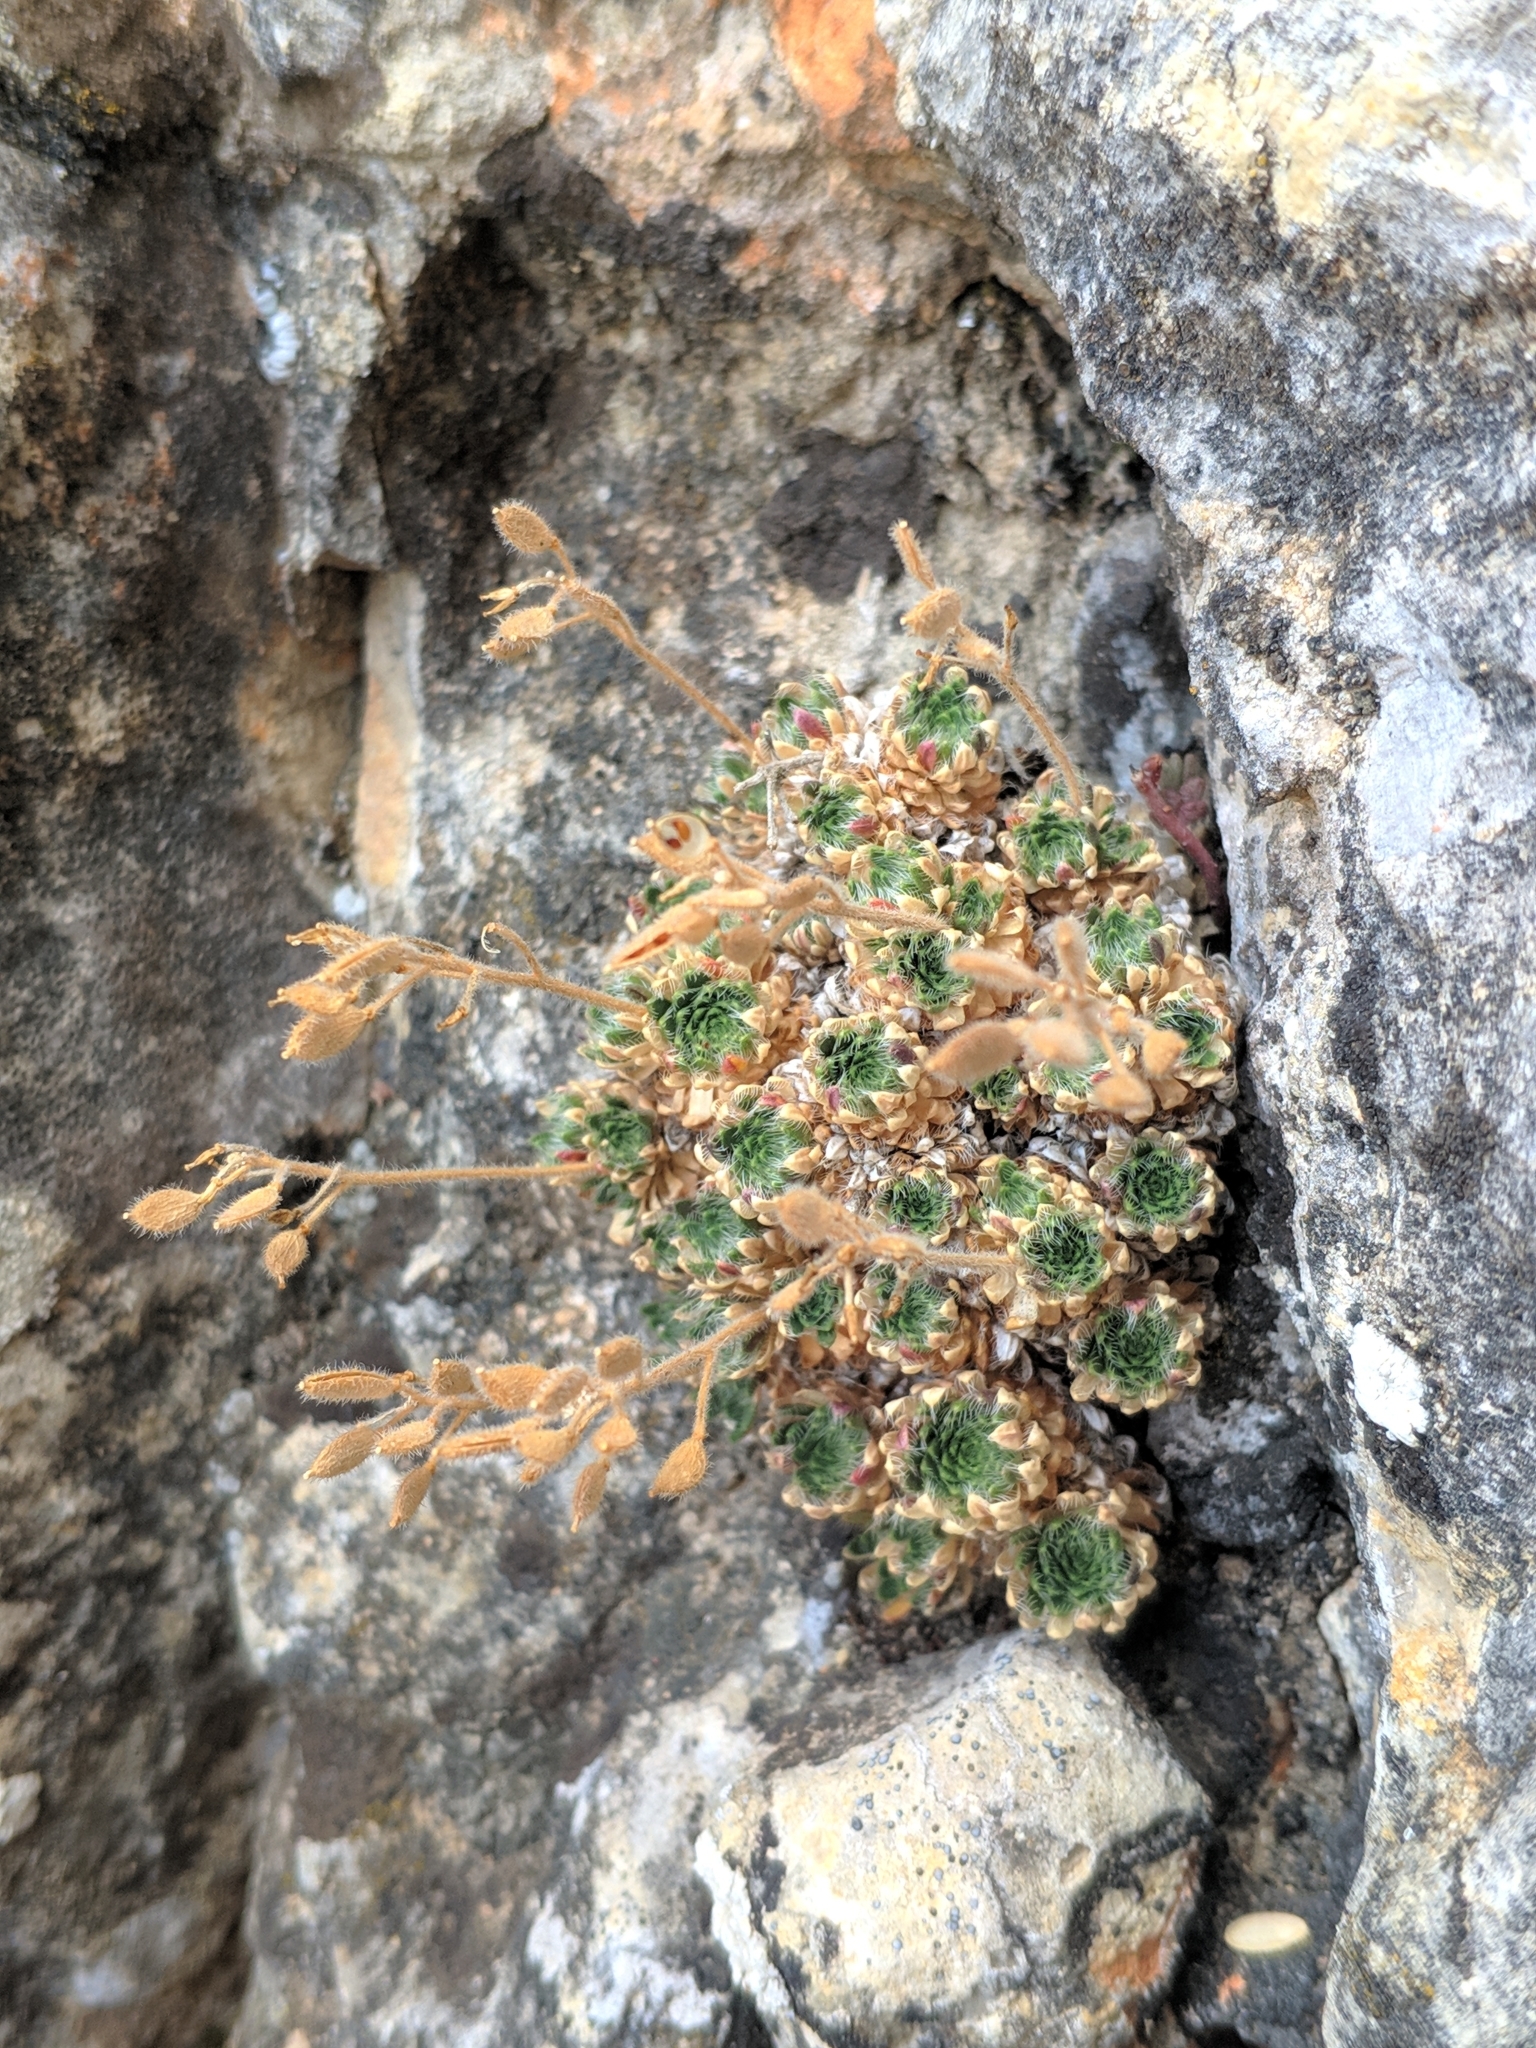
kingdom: Plantae
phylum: Tracheophyta
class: Magnoliopsida
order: Brassicales
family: Brassicaceae
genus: Draba
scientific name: Draba dedeana
